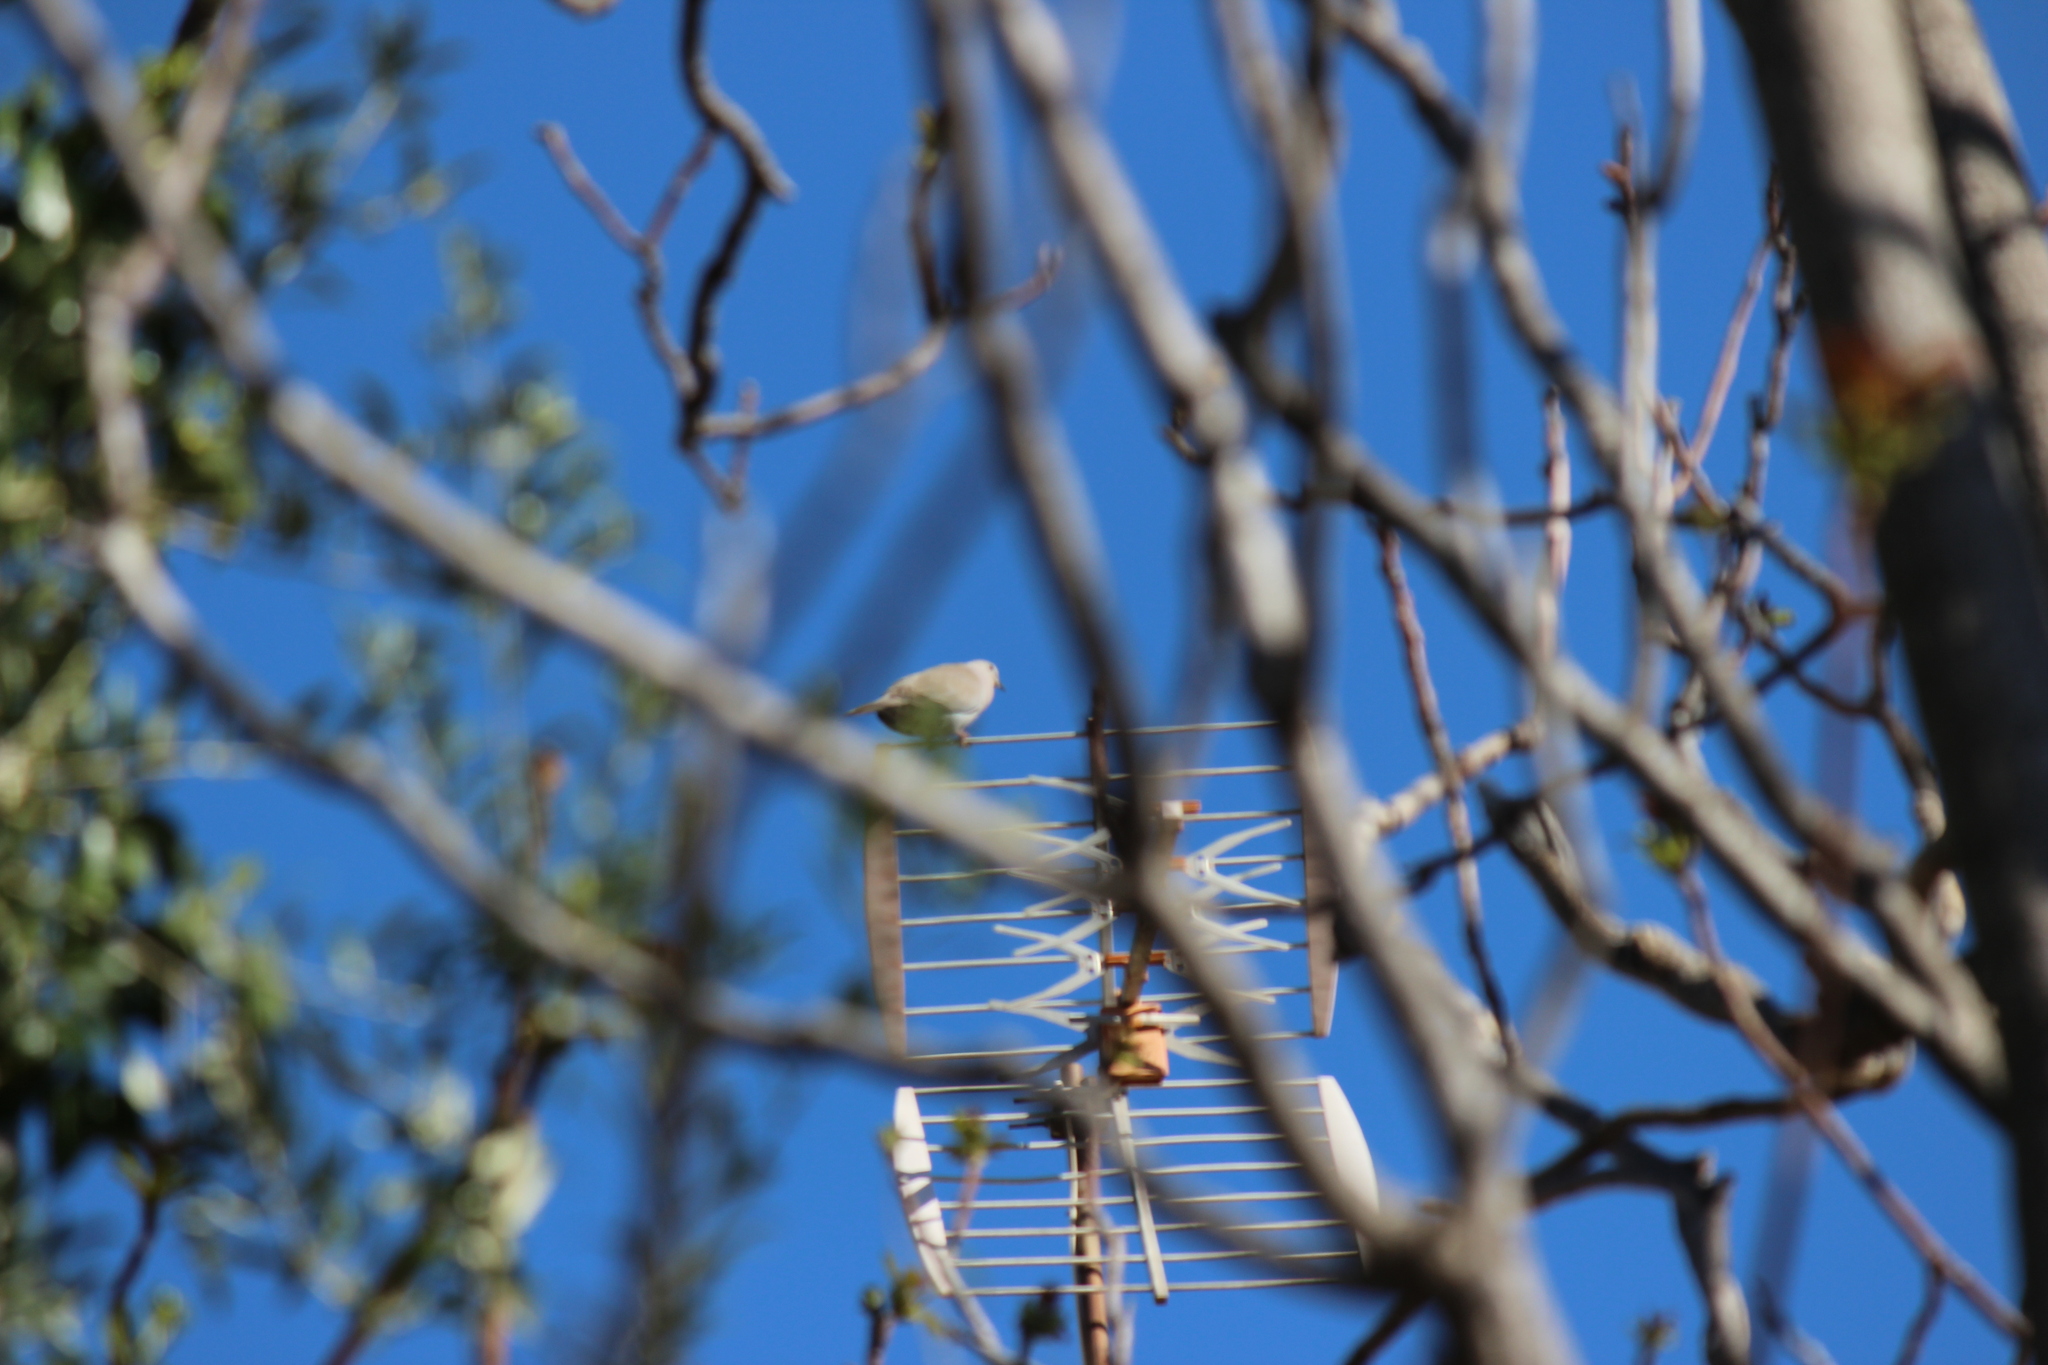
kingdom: Animalia
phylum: Chordata
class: Aves
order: Columbiformes
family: Columbidae
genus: Streptopelia
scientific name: Streptopelia decaocto
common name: Eurasian collared dove
